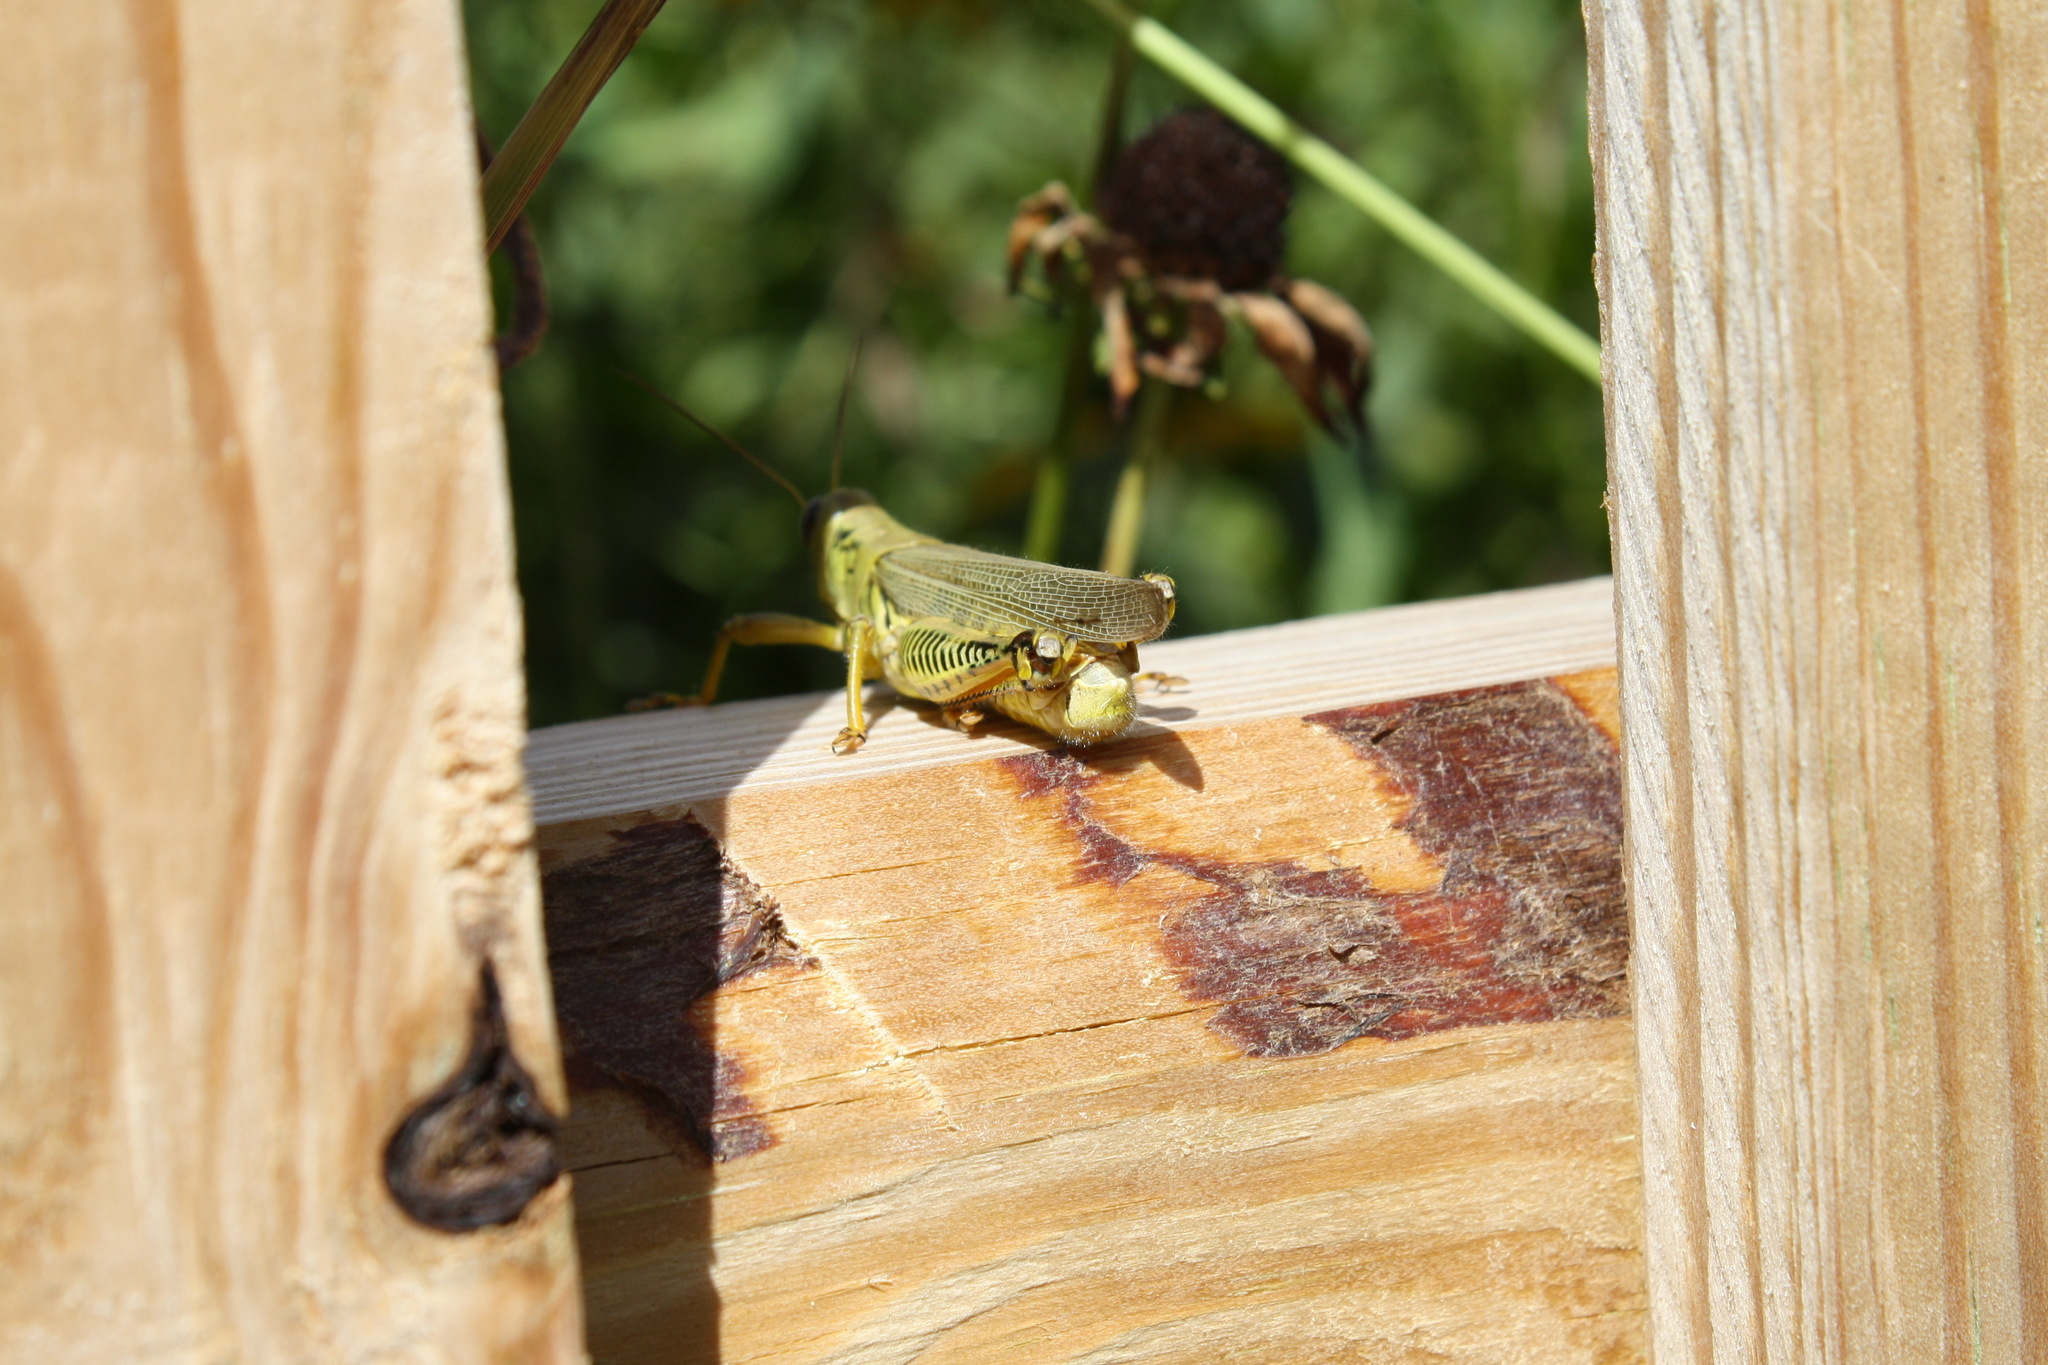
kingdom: Animalia
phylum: Arthropoda
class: Insecta
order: Orthoptera
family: Acrididae
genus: Melanoplus
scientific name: Melanoplus differentialis
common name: Differential grasshopper
